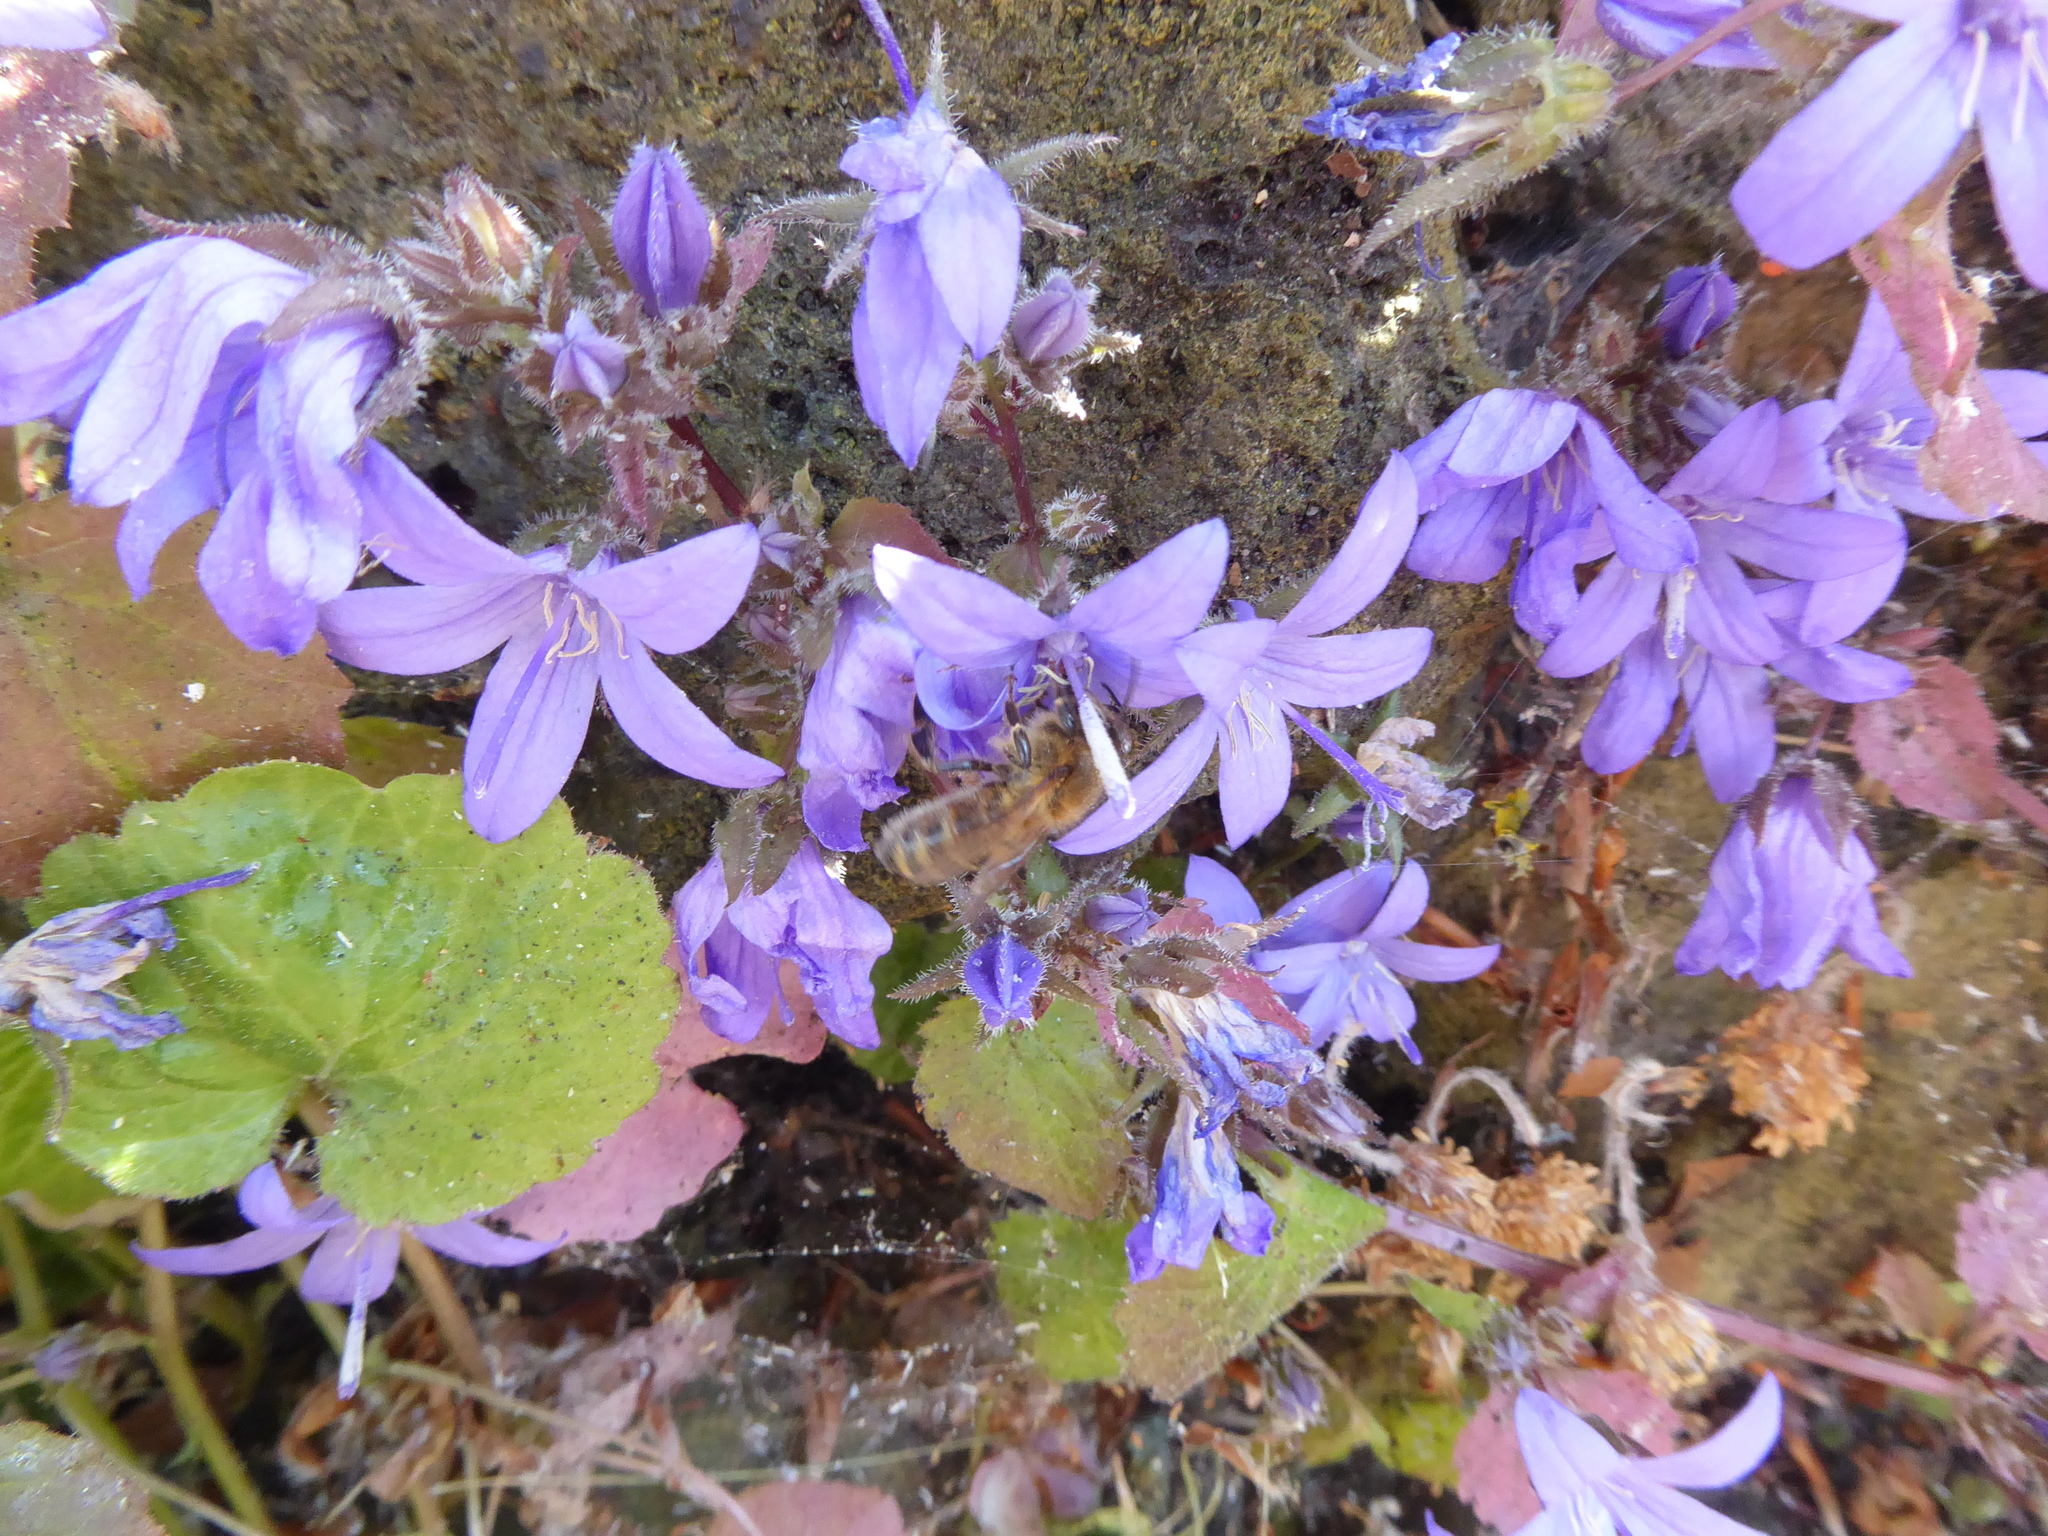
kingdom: Plantae
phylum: Tracheophyta
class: Magnoliopsida
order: Asterales
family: Campanulaceae
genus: Campanula
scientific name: Campanula poscharskyana
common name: Trailing bellflower
